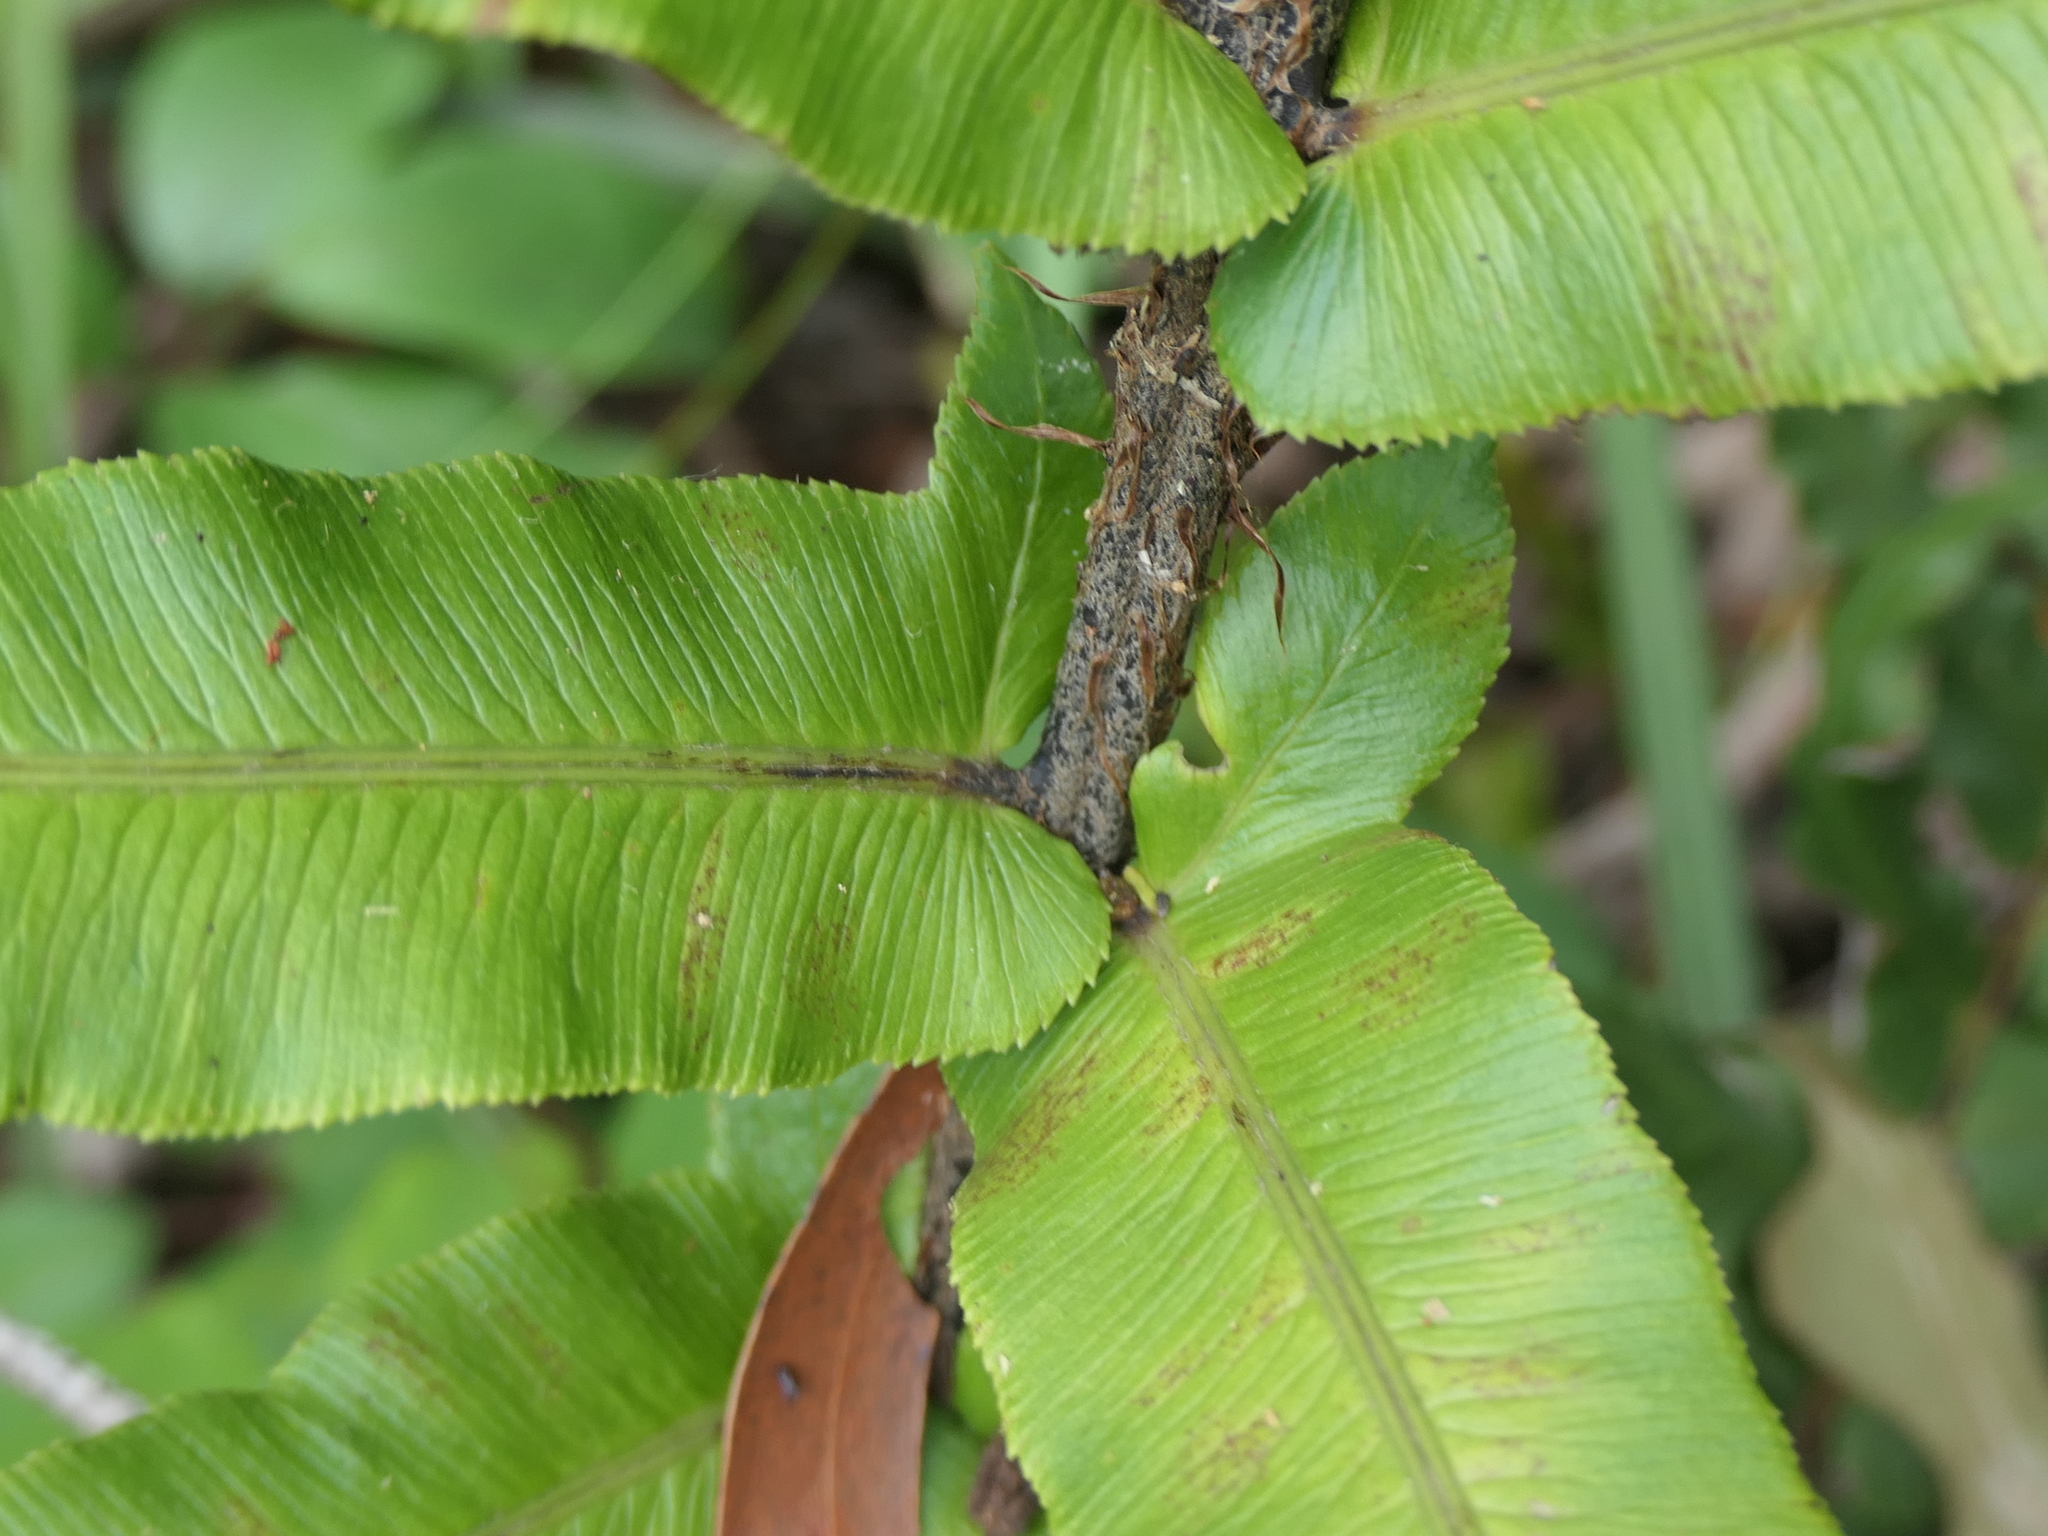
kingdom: Plantae
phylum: Tracheophyta
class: Polypodiopsida
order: Polypodiales
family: Blechnaceae
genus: Parablechnum
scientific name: Parablechnum camfieldii
